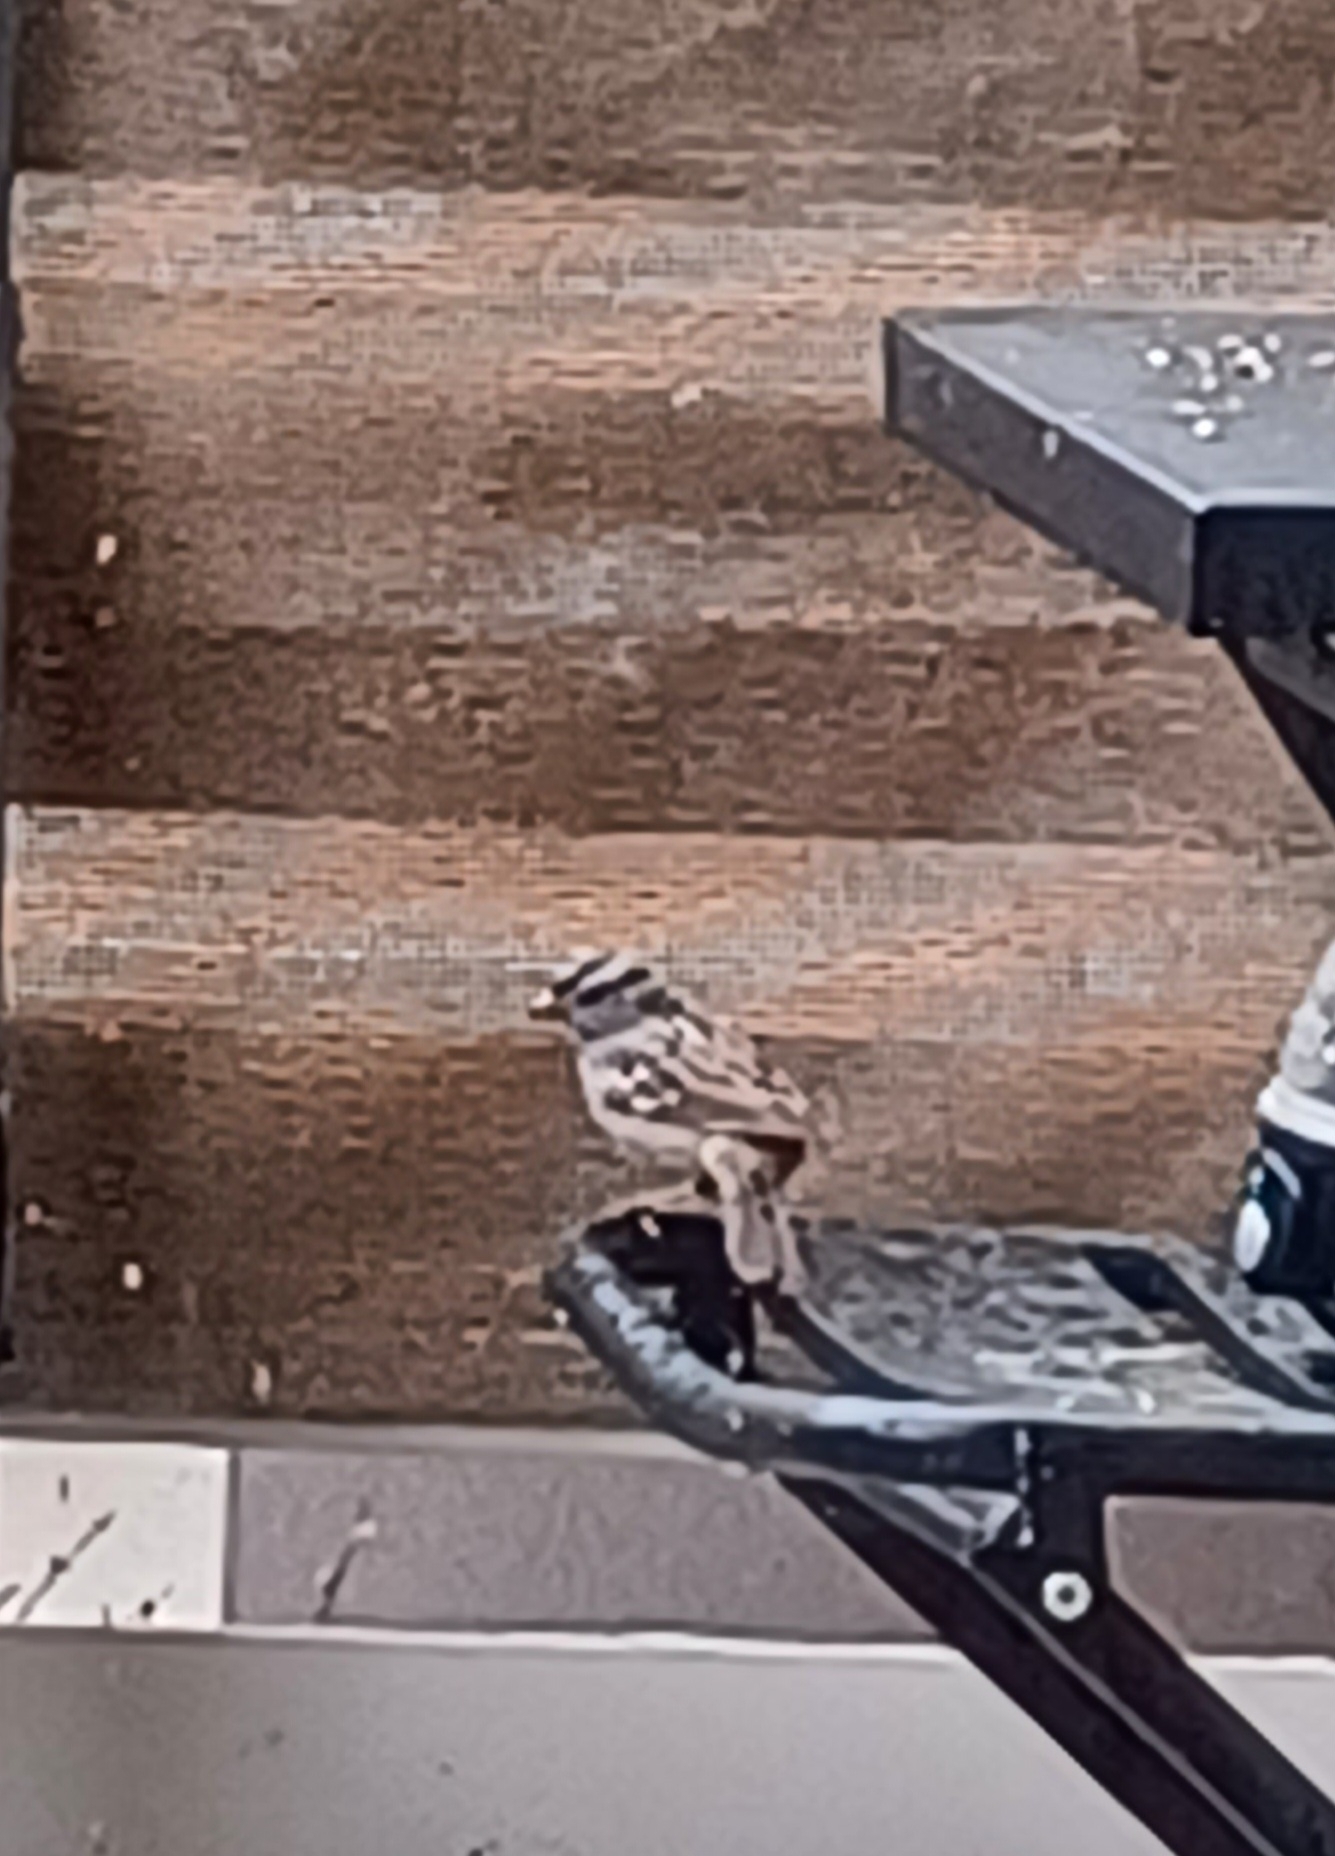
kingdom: Animalia
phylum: Chordata
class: Aves
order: Passeriformes
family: Passerellidae
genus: Zonotrichia
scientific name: Zonotrichia leucophrys
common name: White-crowned sparrow
